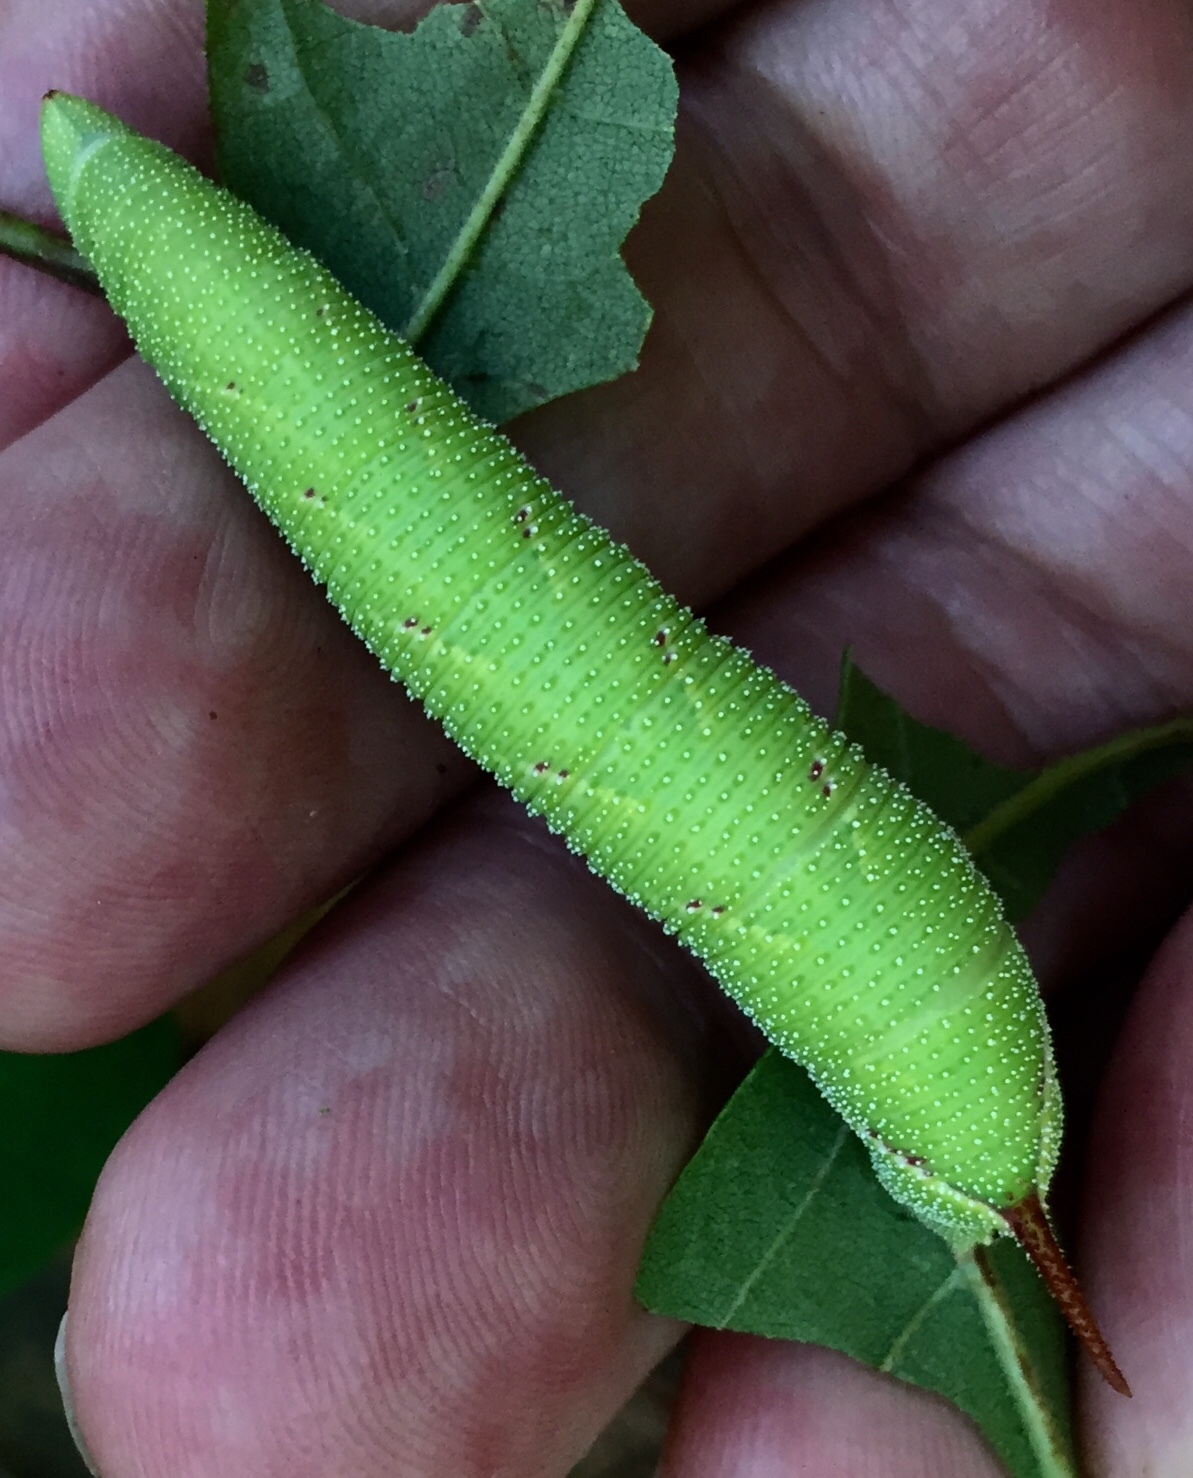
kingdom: Animalia
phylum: Arthropoda
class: Insecta
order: Lepidoptera
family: Sphingidae
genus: Amorpha
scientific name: Amorpha juglandis
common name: Walnut sphinx
